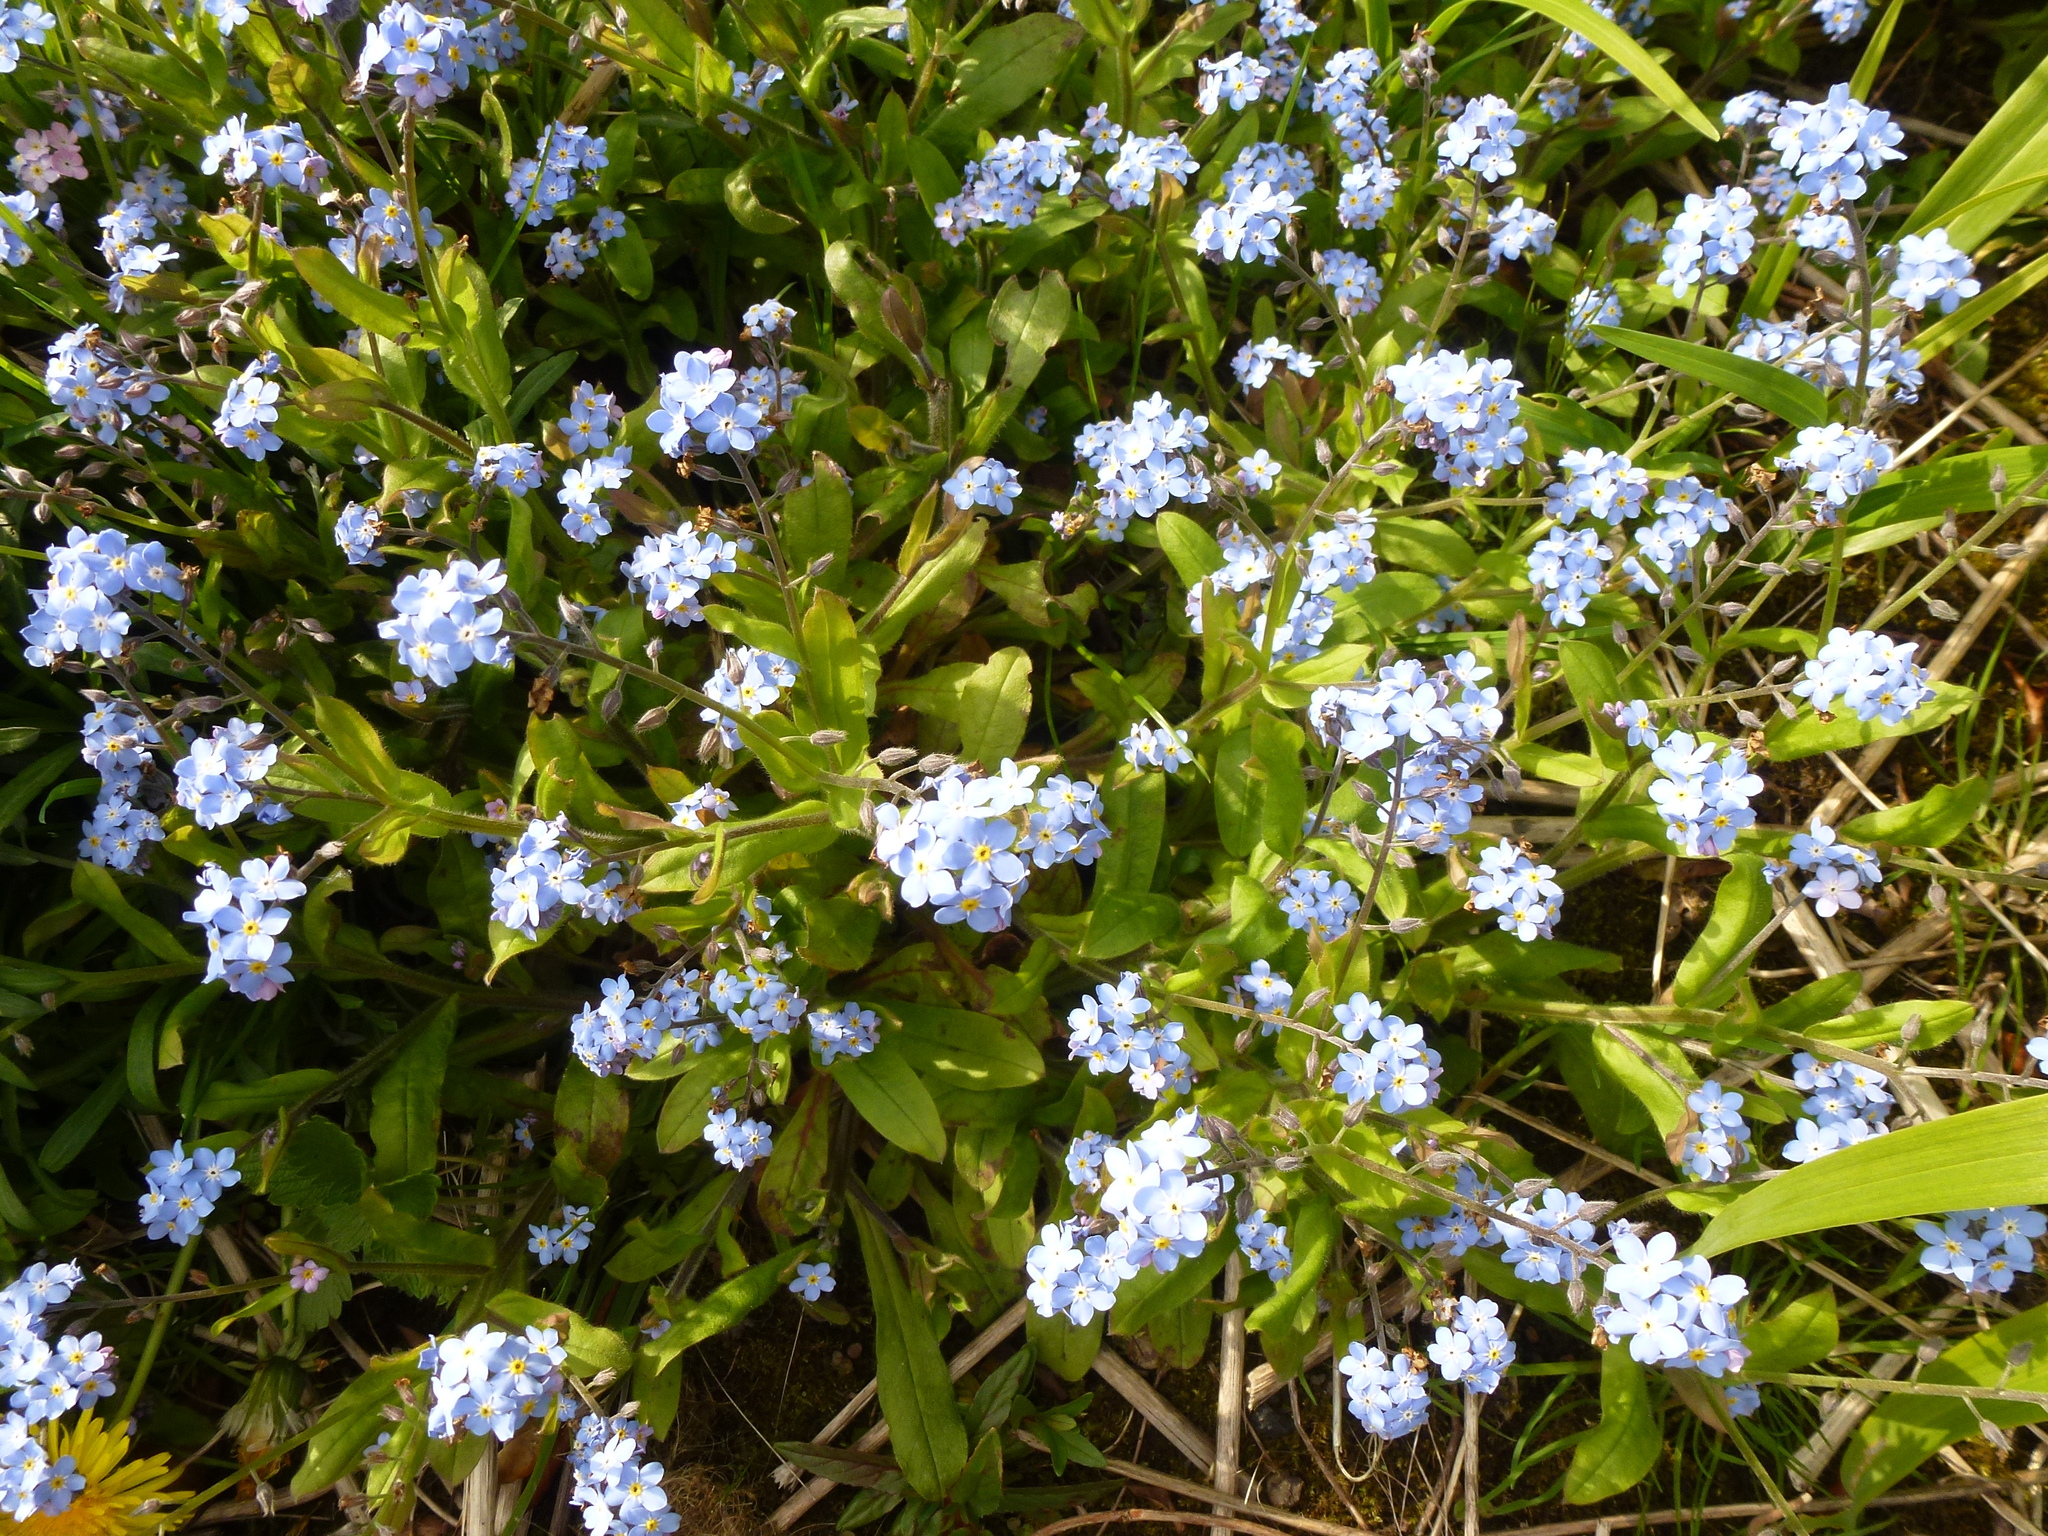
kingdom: Plantae
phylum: Tracheophyta
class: Magnoliopsida
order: Boraginales
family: Boraginaceae
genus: Myosotis
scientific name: Myosotis sylvatica
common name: Wood forget-me-not
